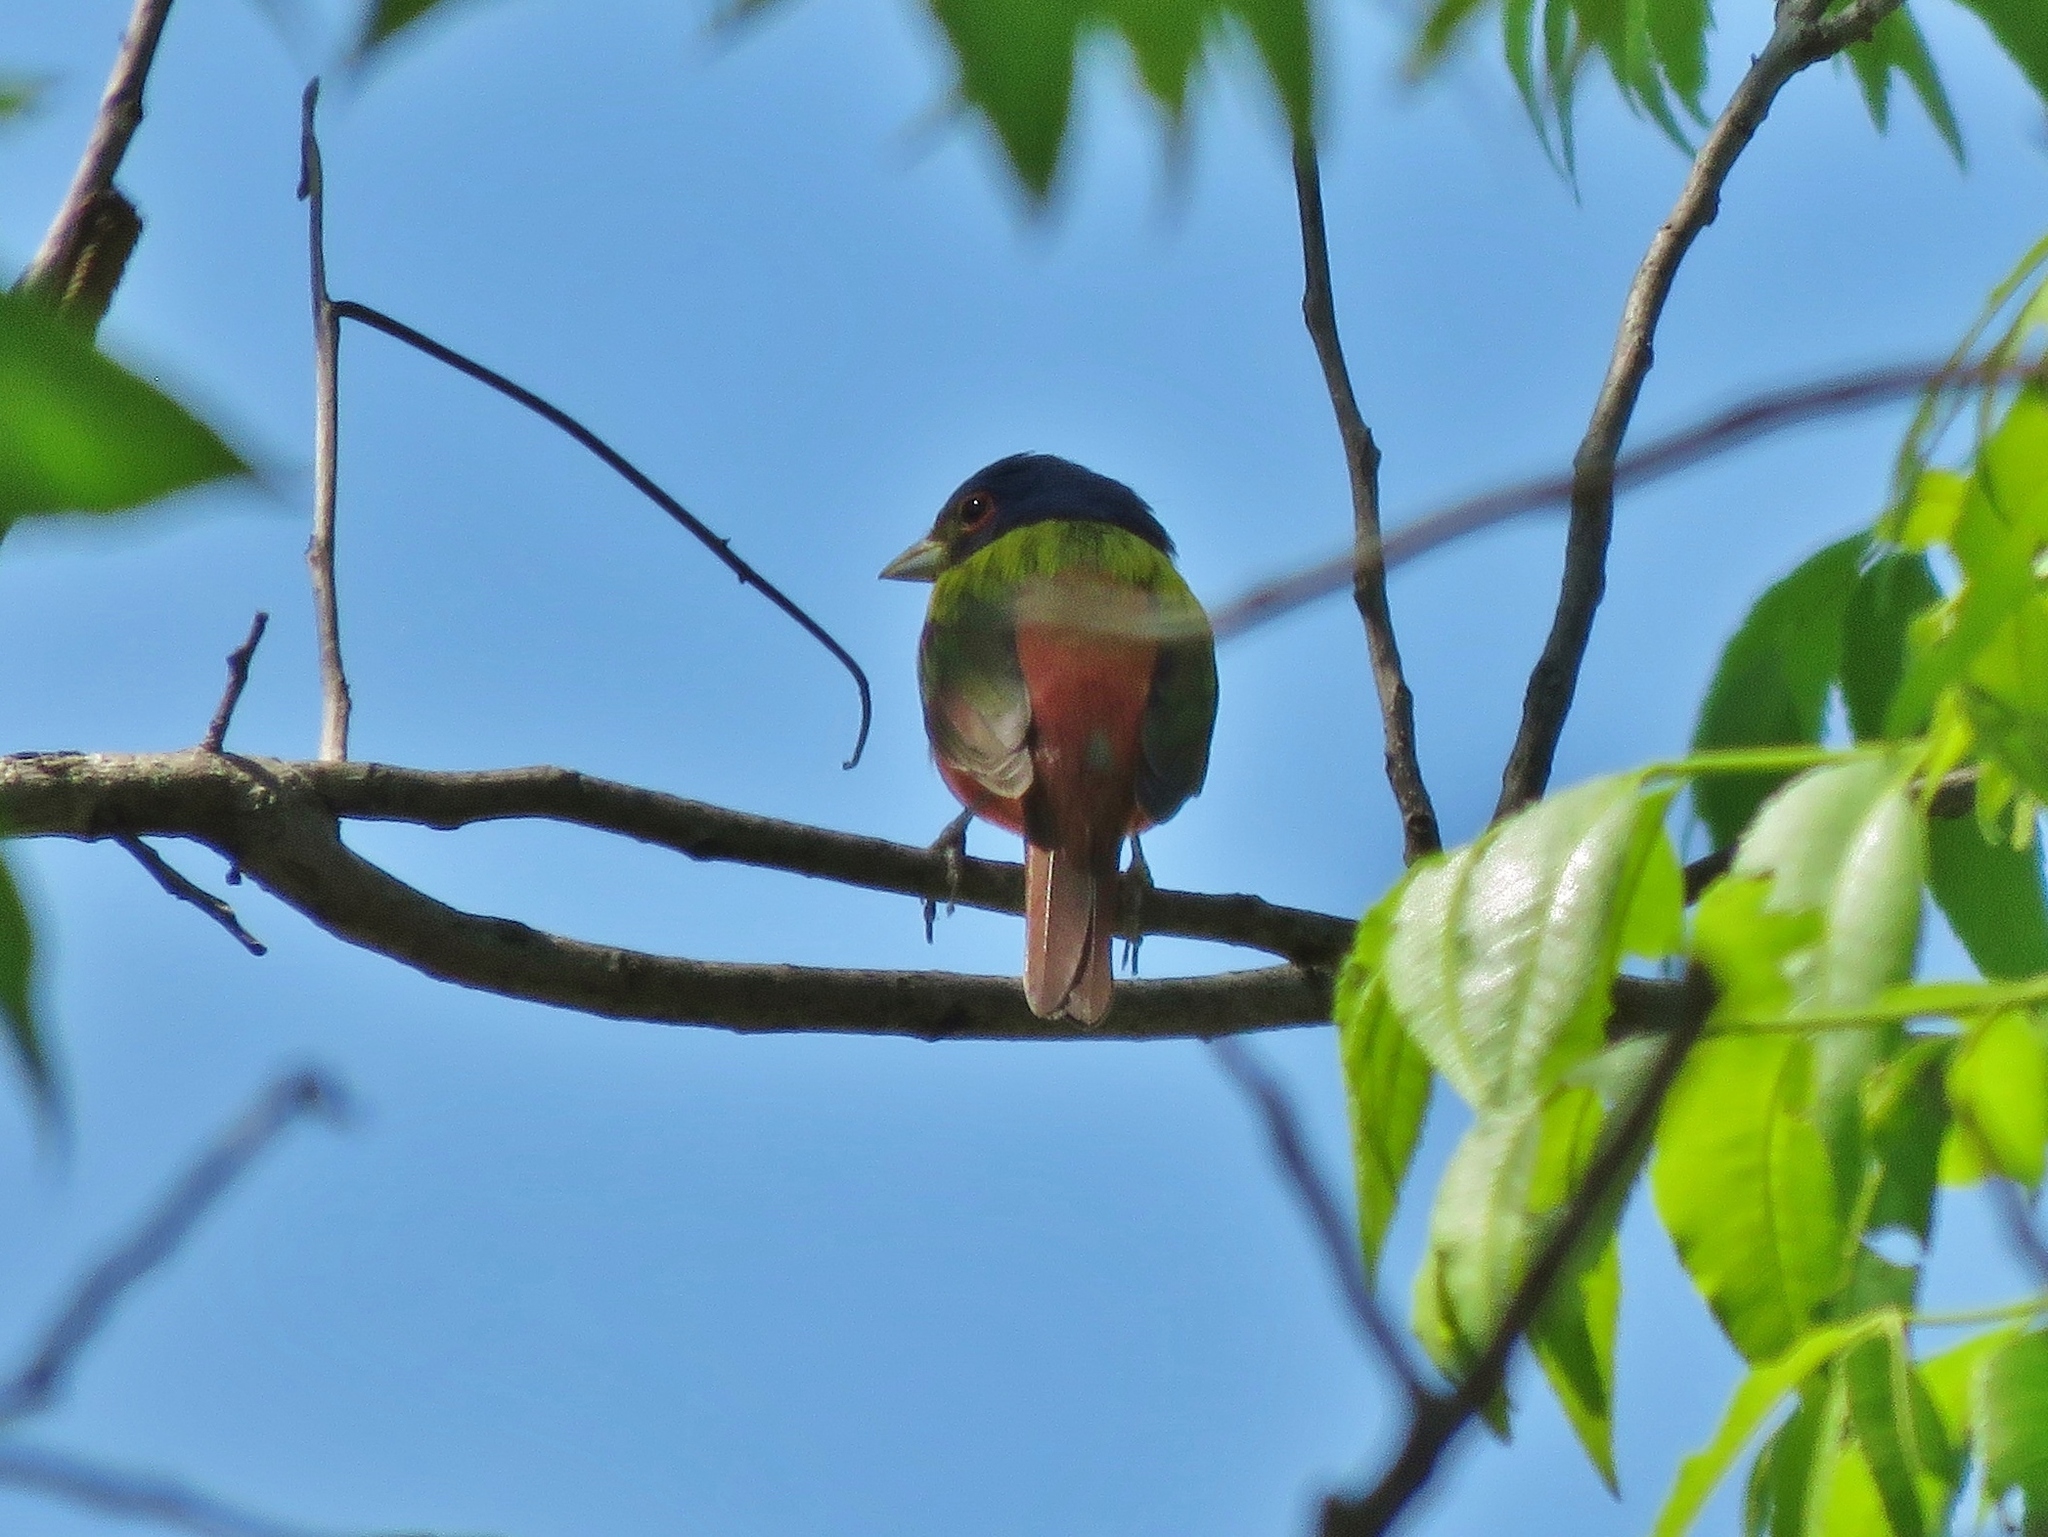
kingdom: Animalia
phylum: Chordata
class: Aves
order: Passeriformes
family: Cardinalidae
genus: Passerina
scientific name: Passerina ciris
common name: Painted bunting
